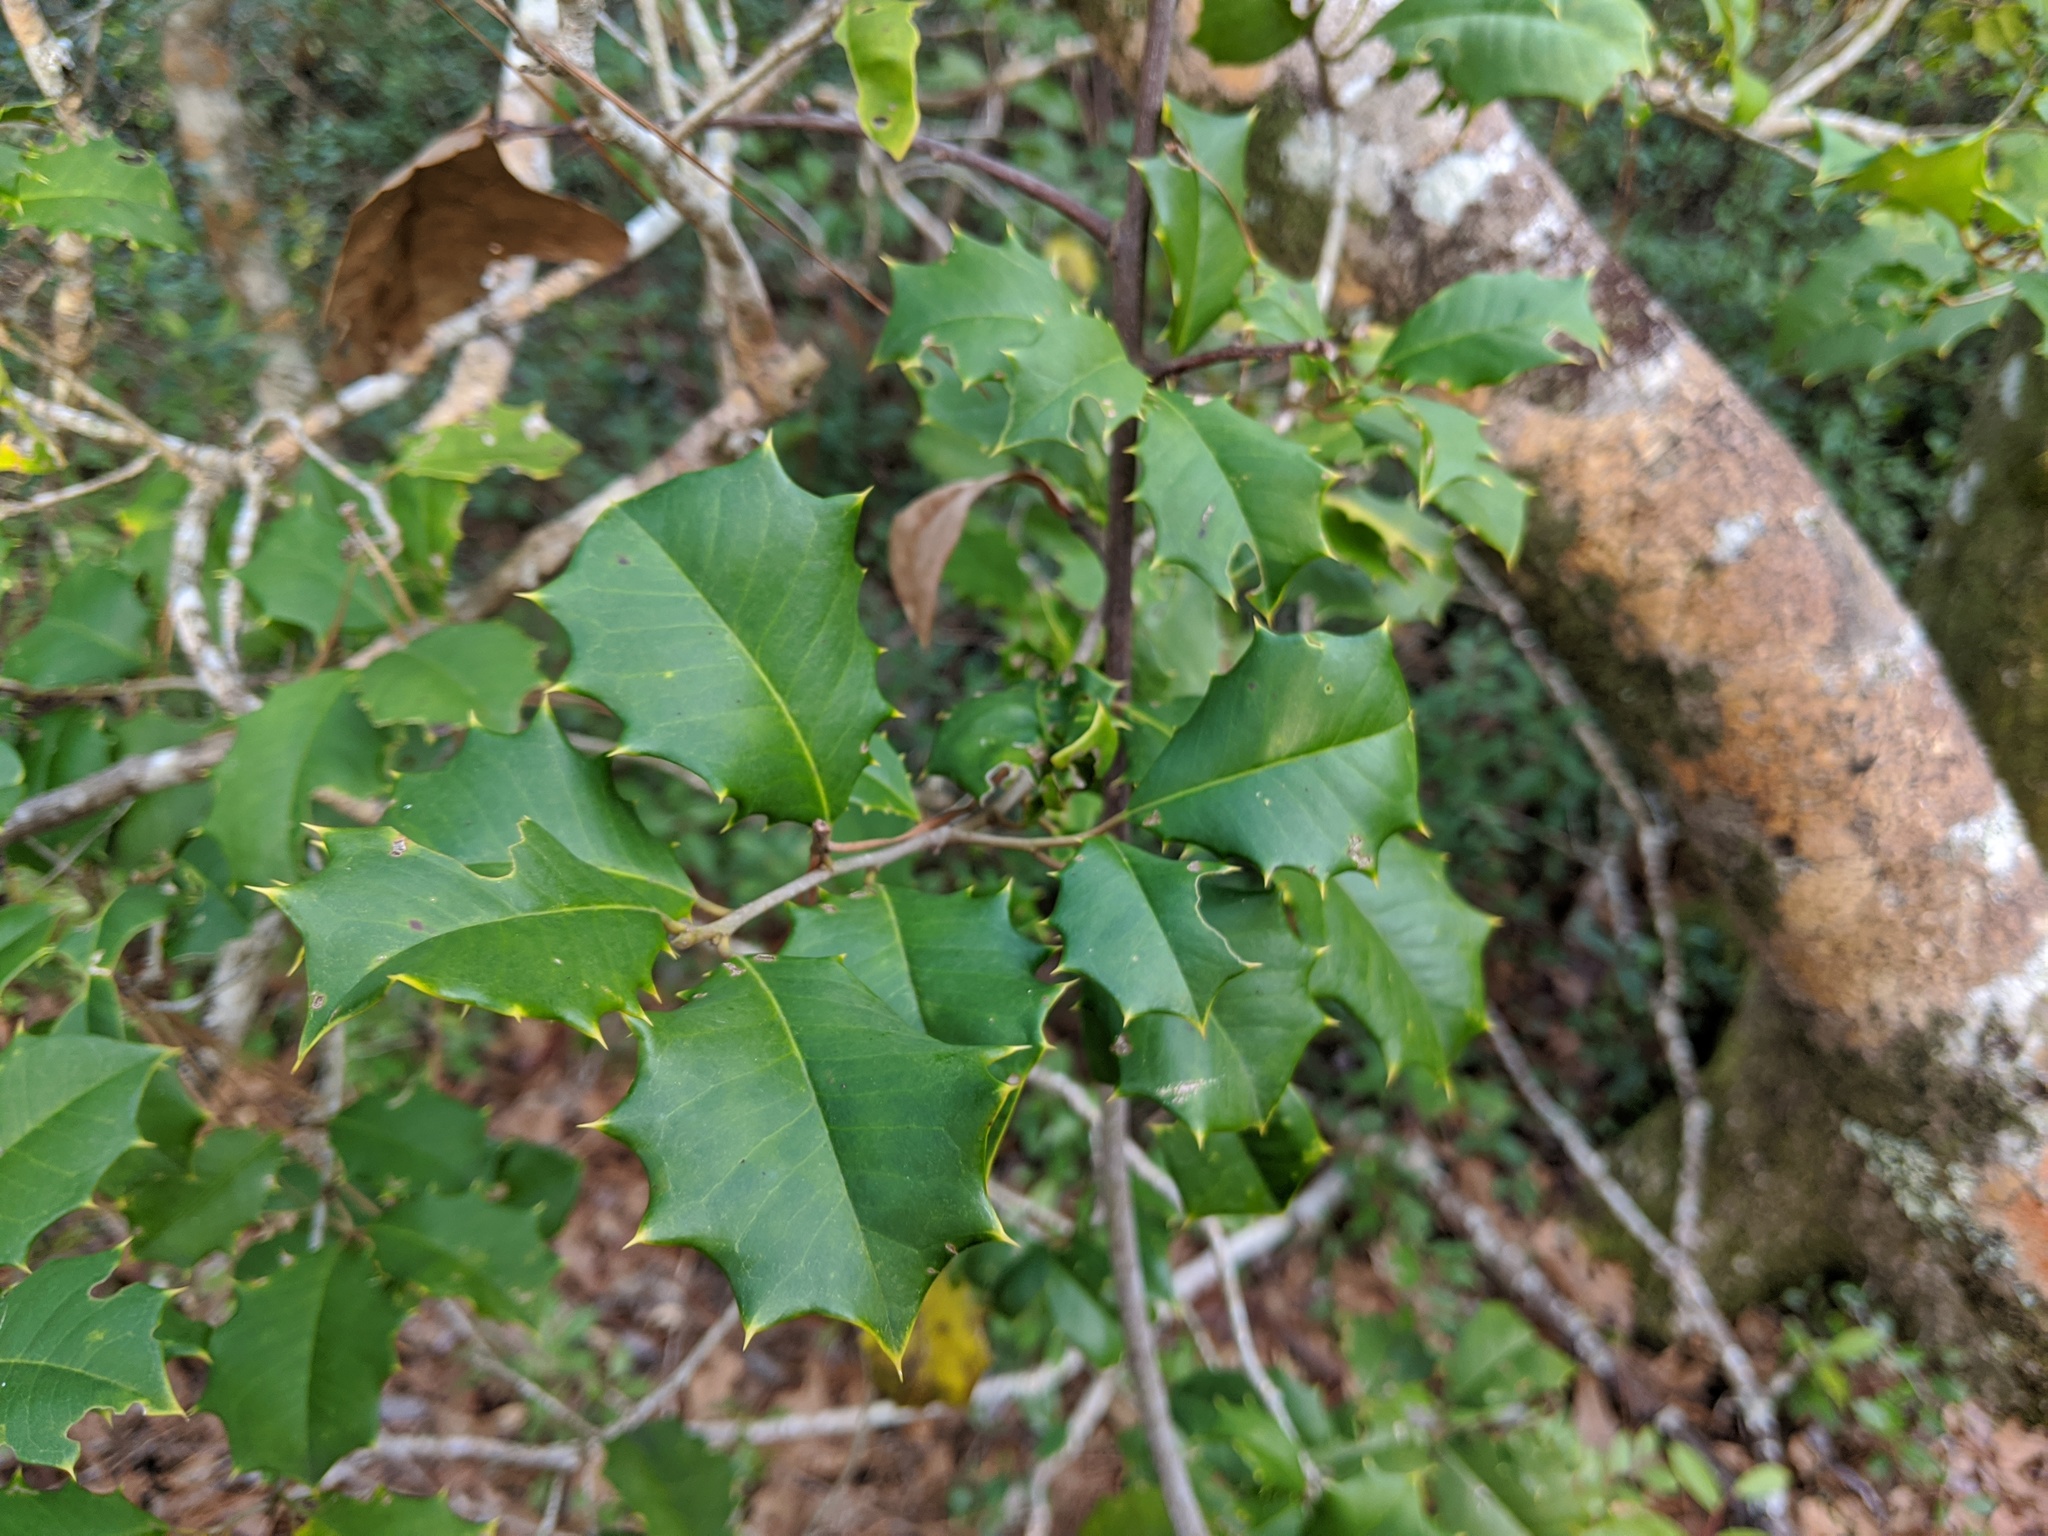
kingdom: Plantae
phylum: Tracheophyta
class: Magnoliopsida
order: Aquifoliales
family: Aquifoliaceae
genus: Ilex
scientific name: Ilex opaca
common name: American holly
